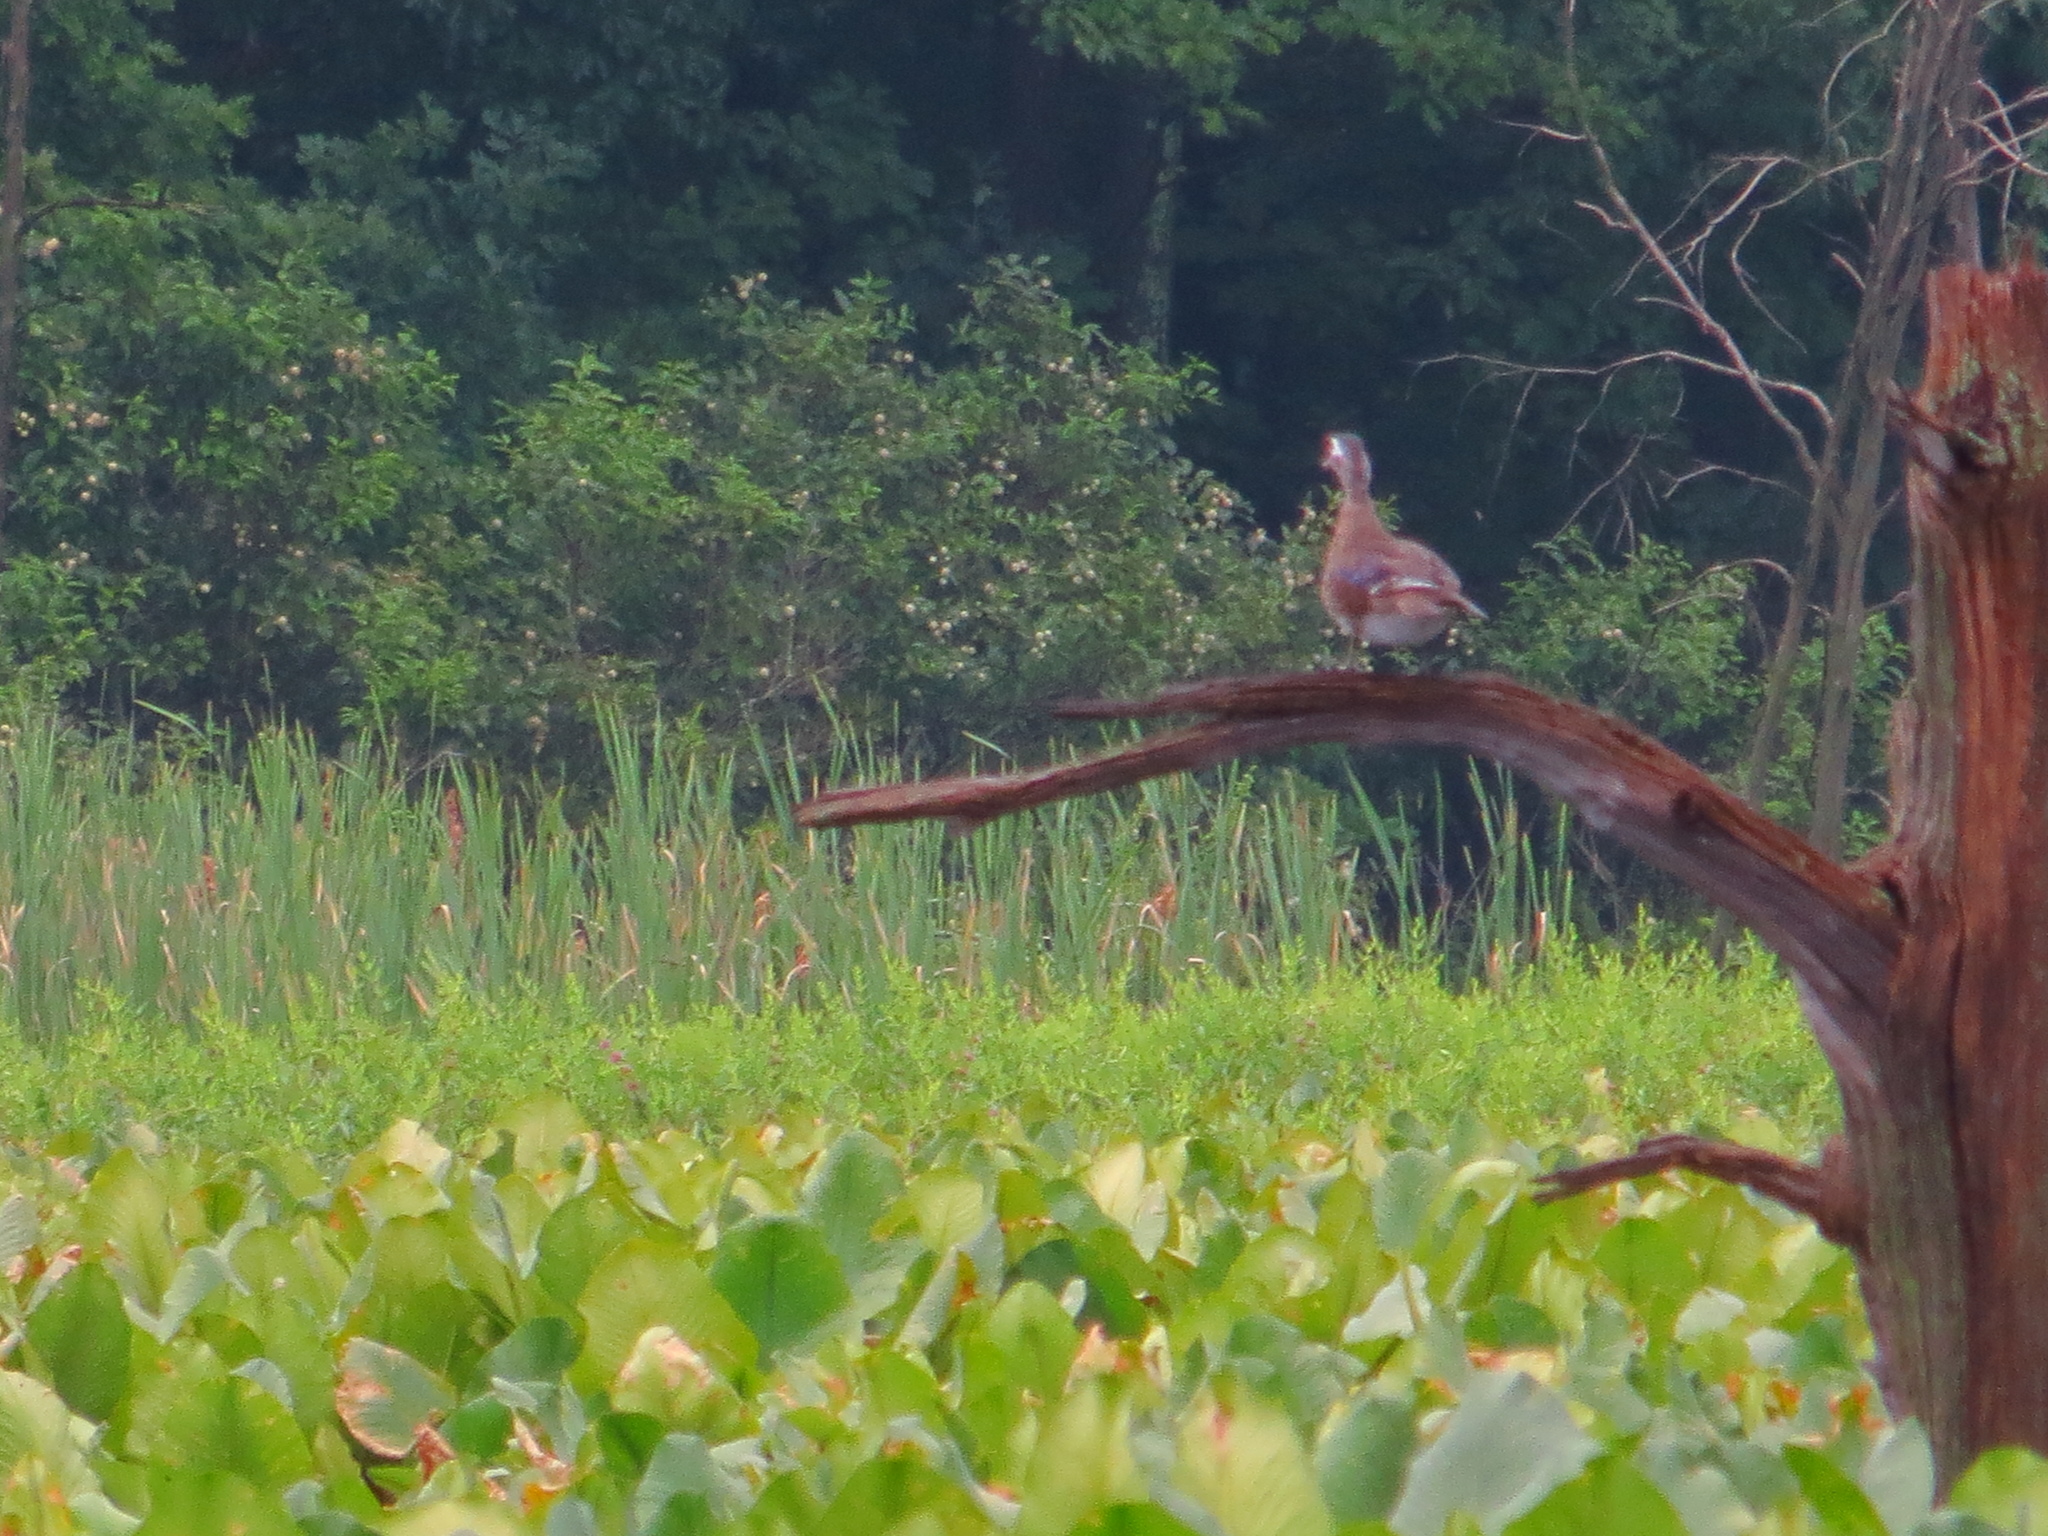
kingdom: Animalia
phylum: Chordata
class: Aves
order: Anseriformes
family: Anatidae
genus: Aix
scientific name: Aix sponsa
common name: Wood duck
